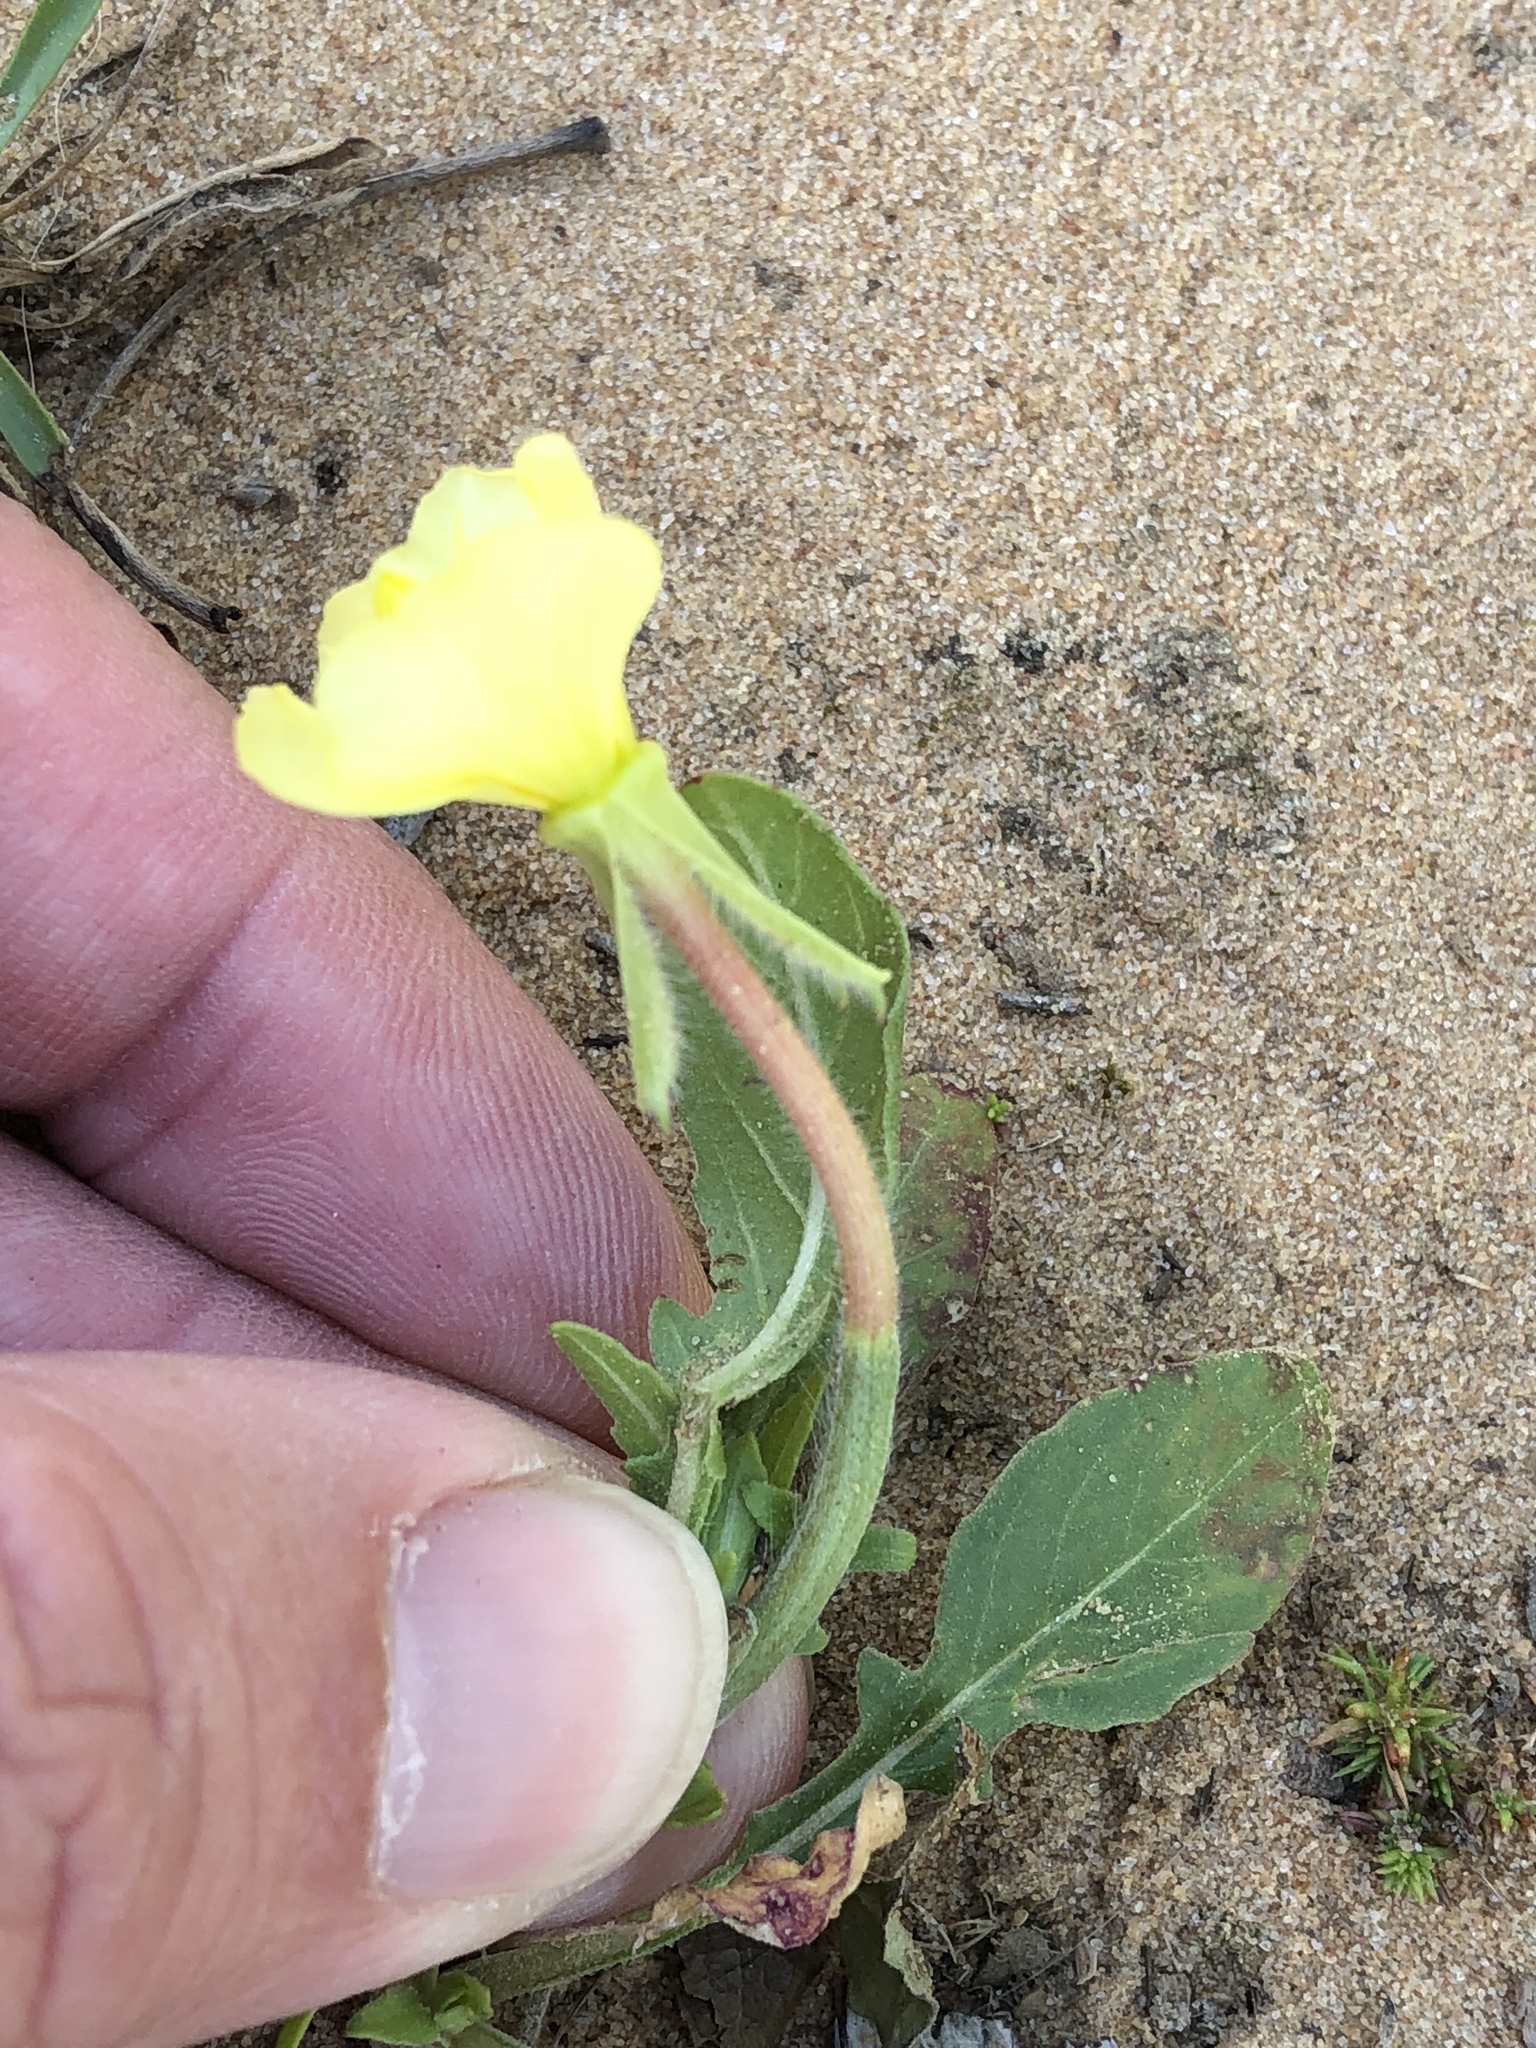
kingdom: Plantae
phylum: Tracheophyta
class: Magnoliopsida
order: Myrtales
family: Onagraceae
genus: Oenothera
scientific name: Oenothera laciniata
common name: Cut-leaved evening-primrose
